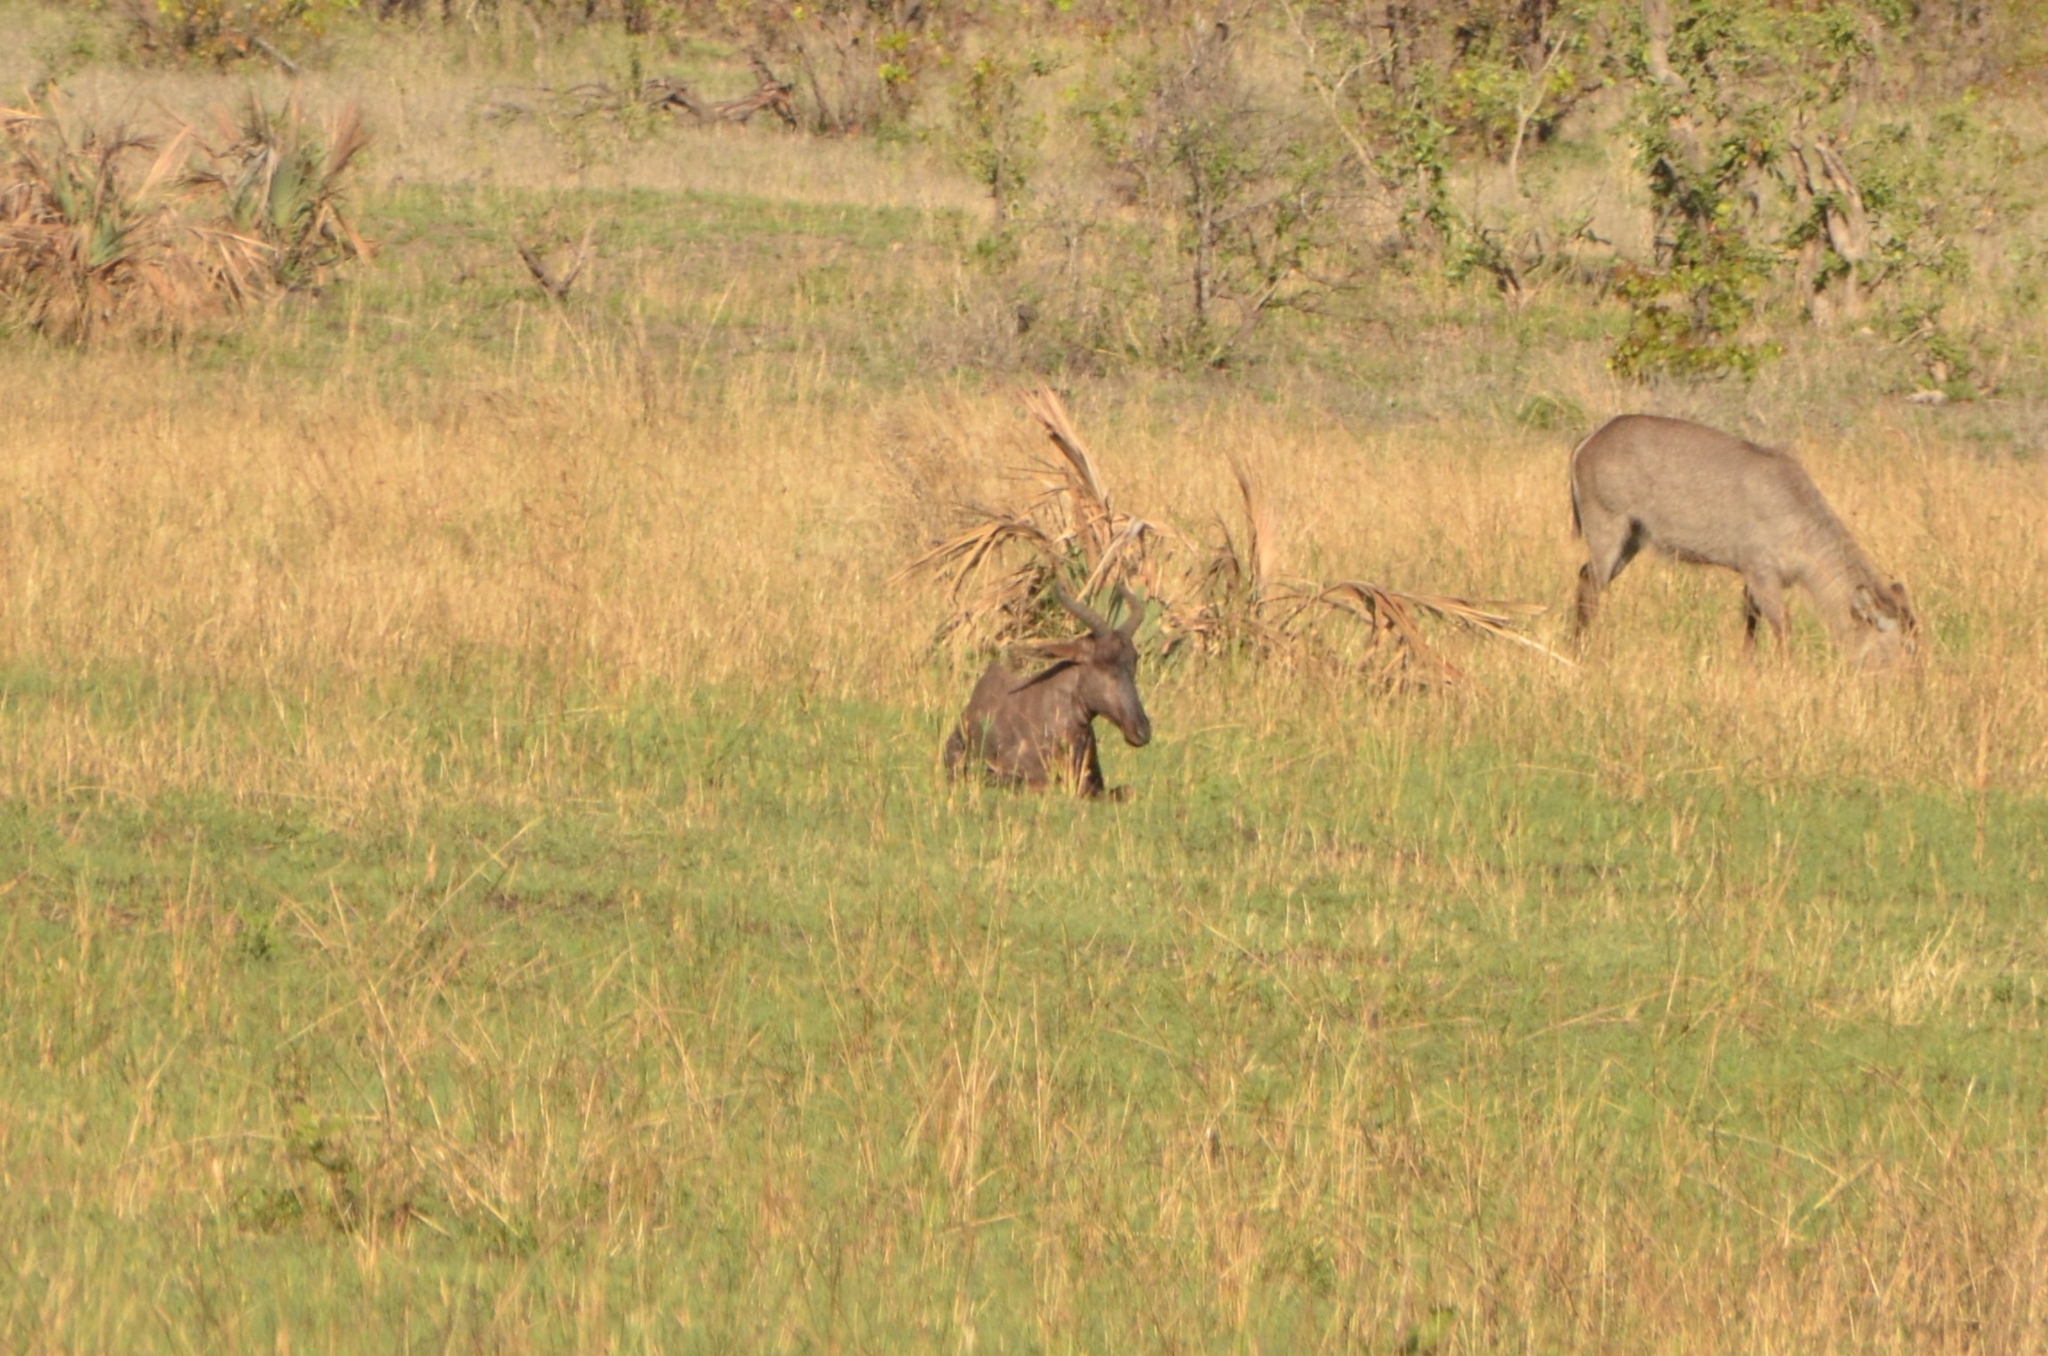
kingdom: Animalia
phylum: Chordata
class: Mammalia
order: Artiodactyla
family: Bovidae
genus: Damaliscus
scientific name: Damaliscus lunatus
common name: Common tsessebe
